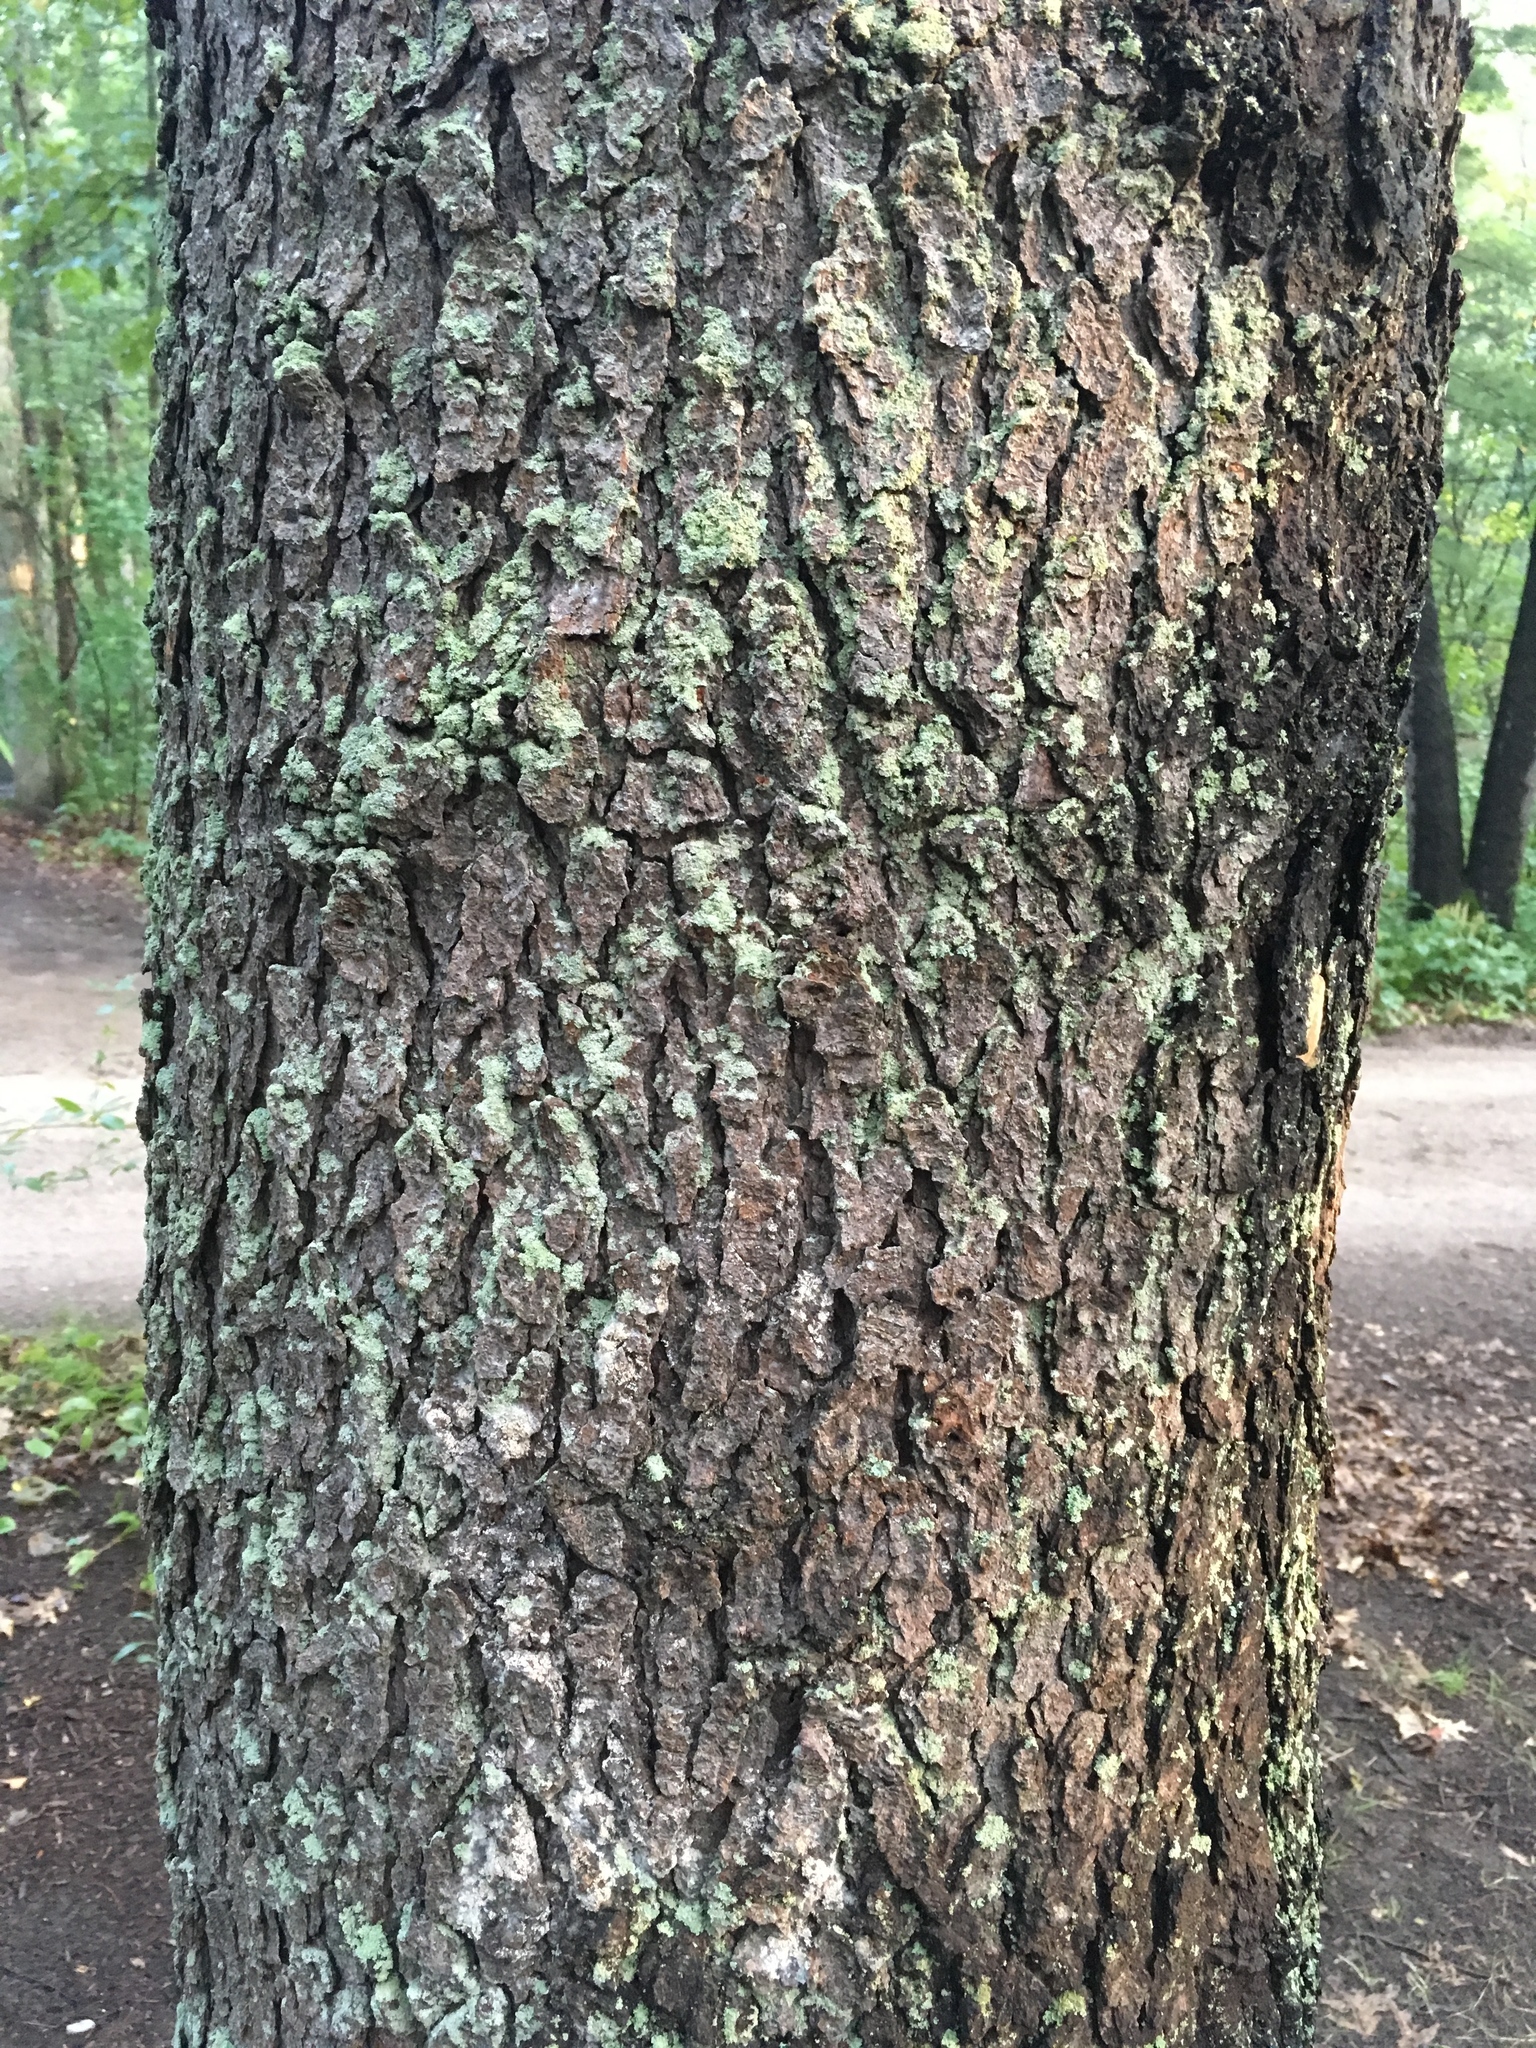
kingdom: Plantae
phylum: Tracheophyta
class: Magnoliopsida
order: Rosales
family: Rosaceae
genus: Prunus
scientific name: Prunus serotina
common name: Black cherry
